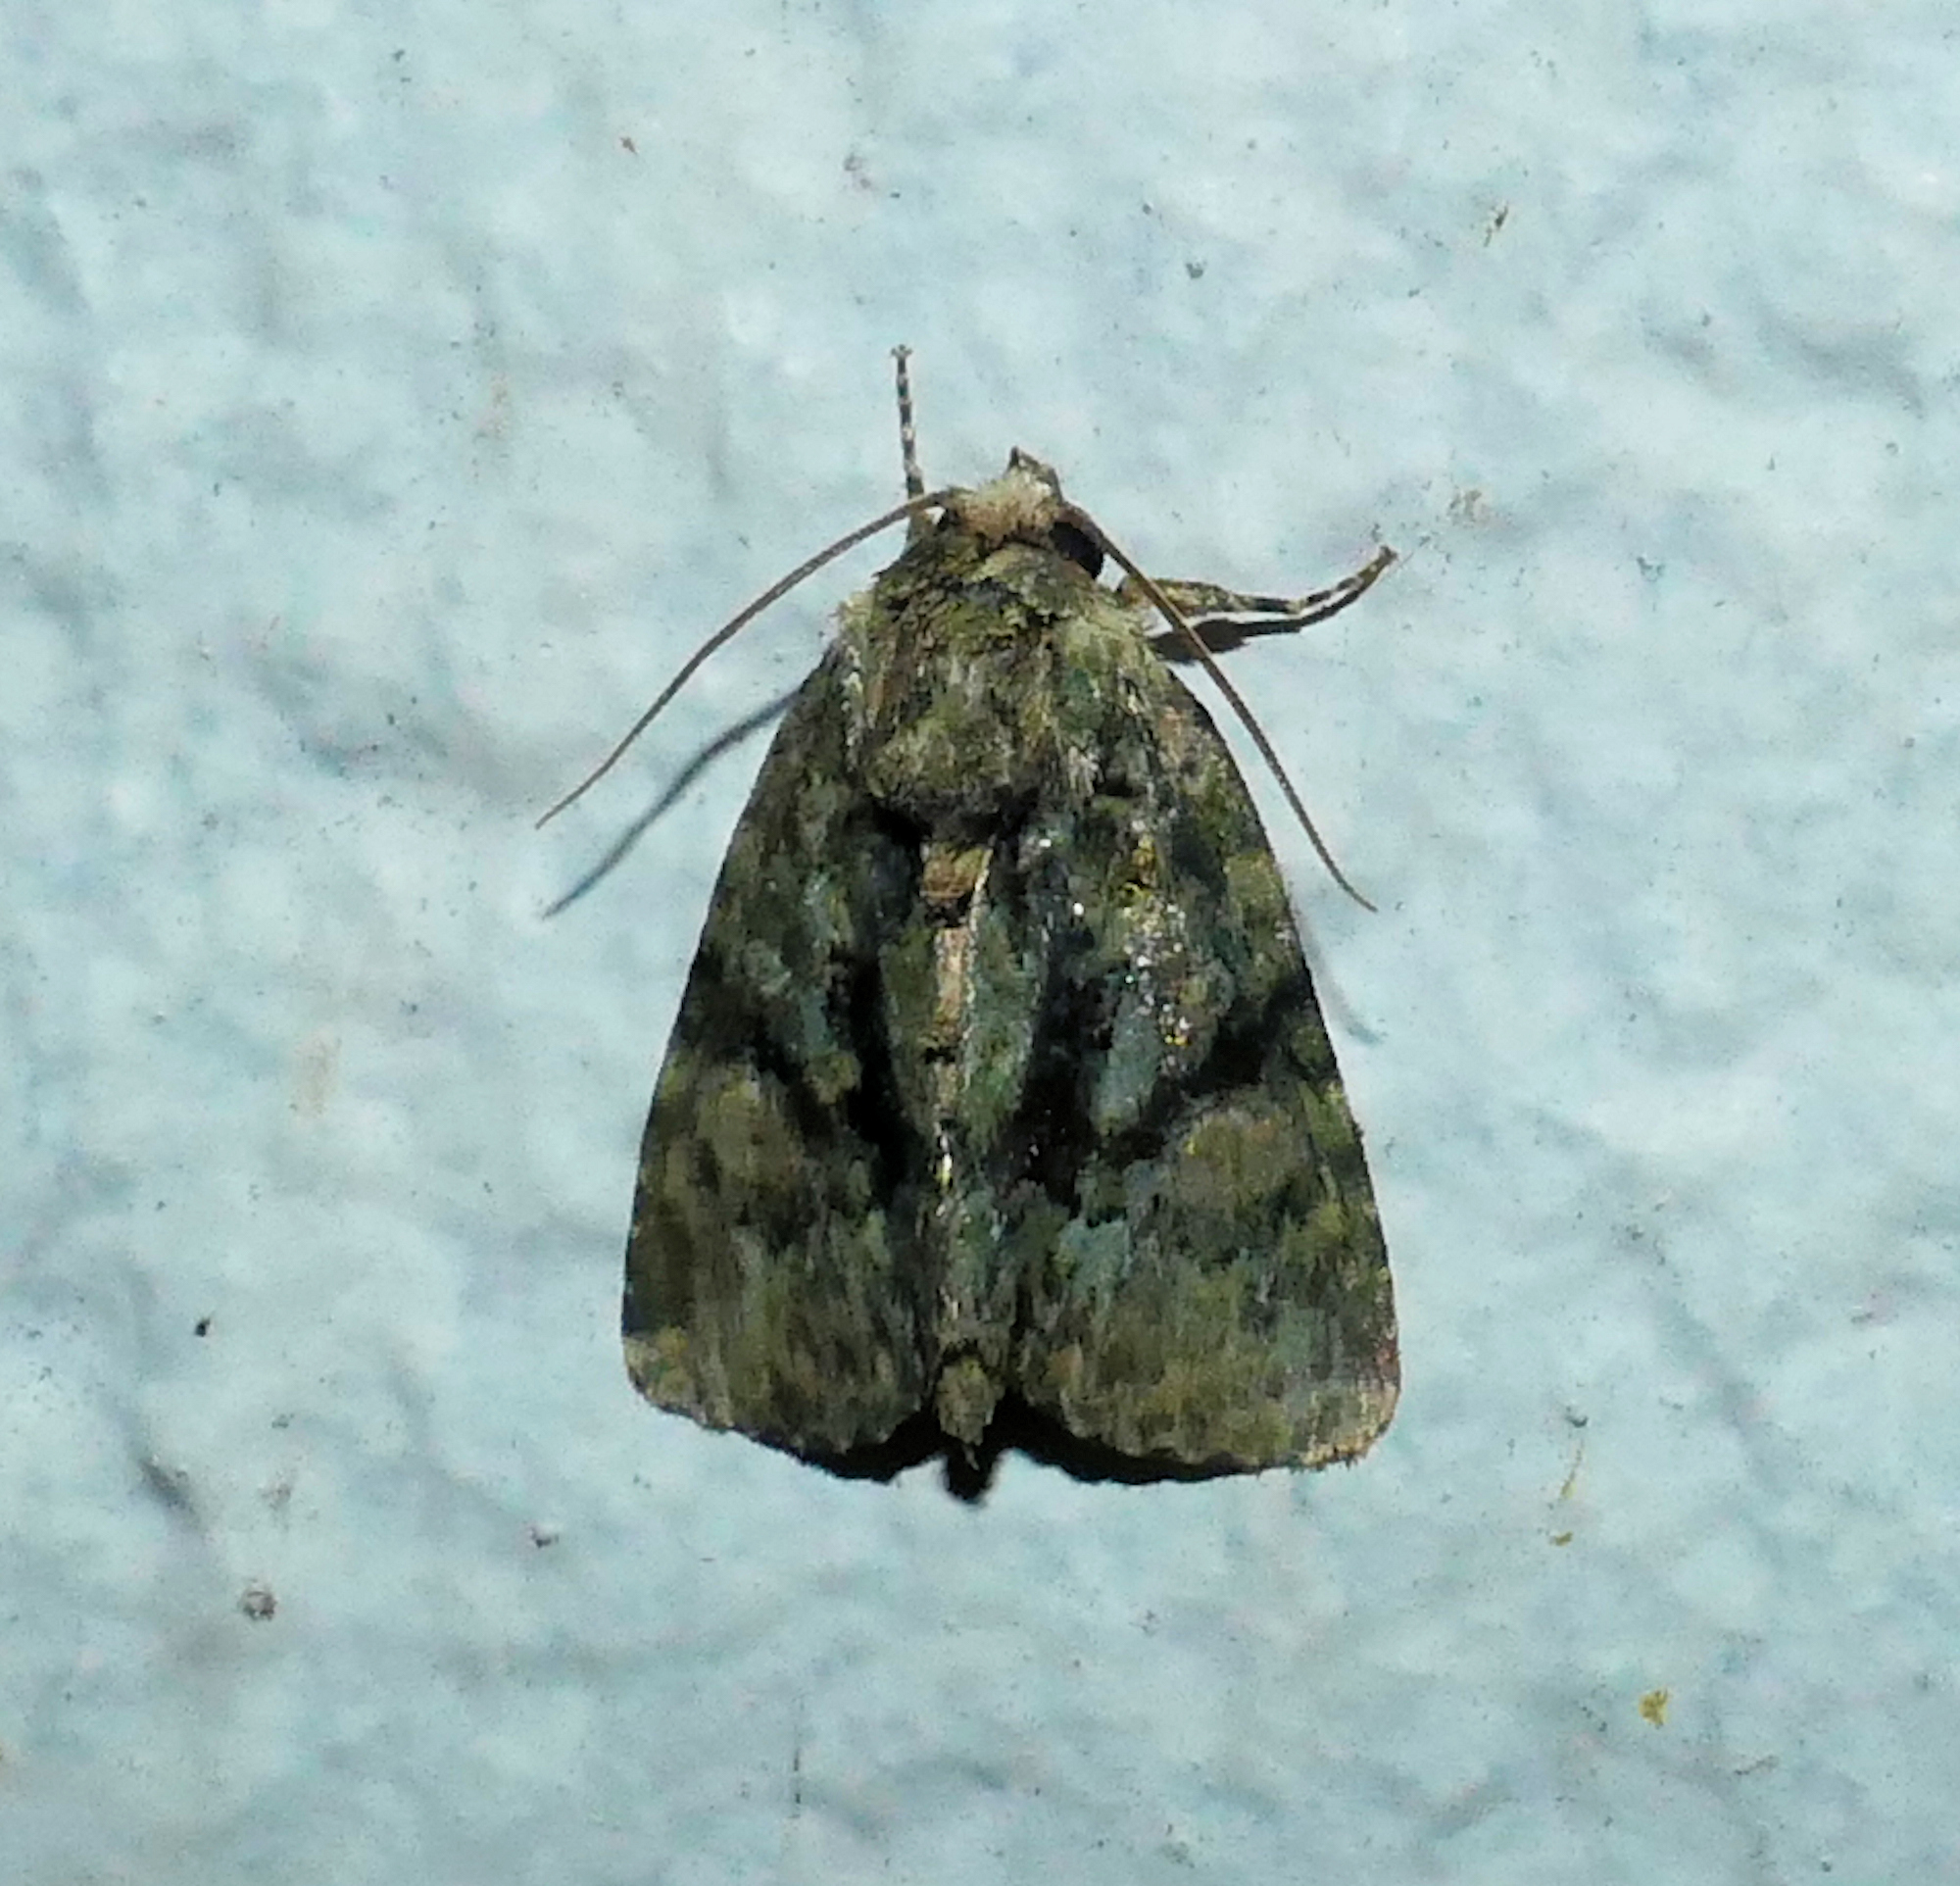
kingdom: Animalia
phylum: Arthropoda
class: Insecta
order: Lepidoptera
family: Noctuidae
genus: Phosphila
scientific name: Phosphila miselioides
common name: Spotted phosphila moth
